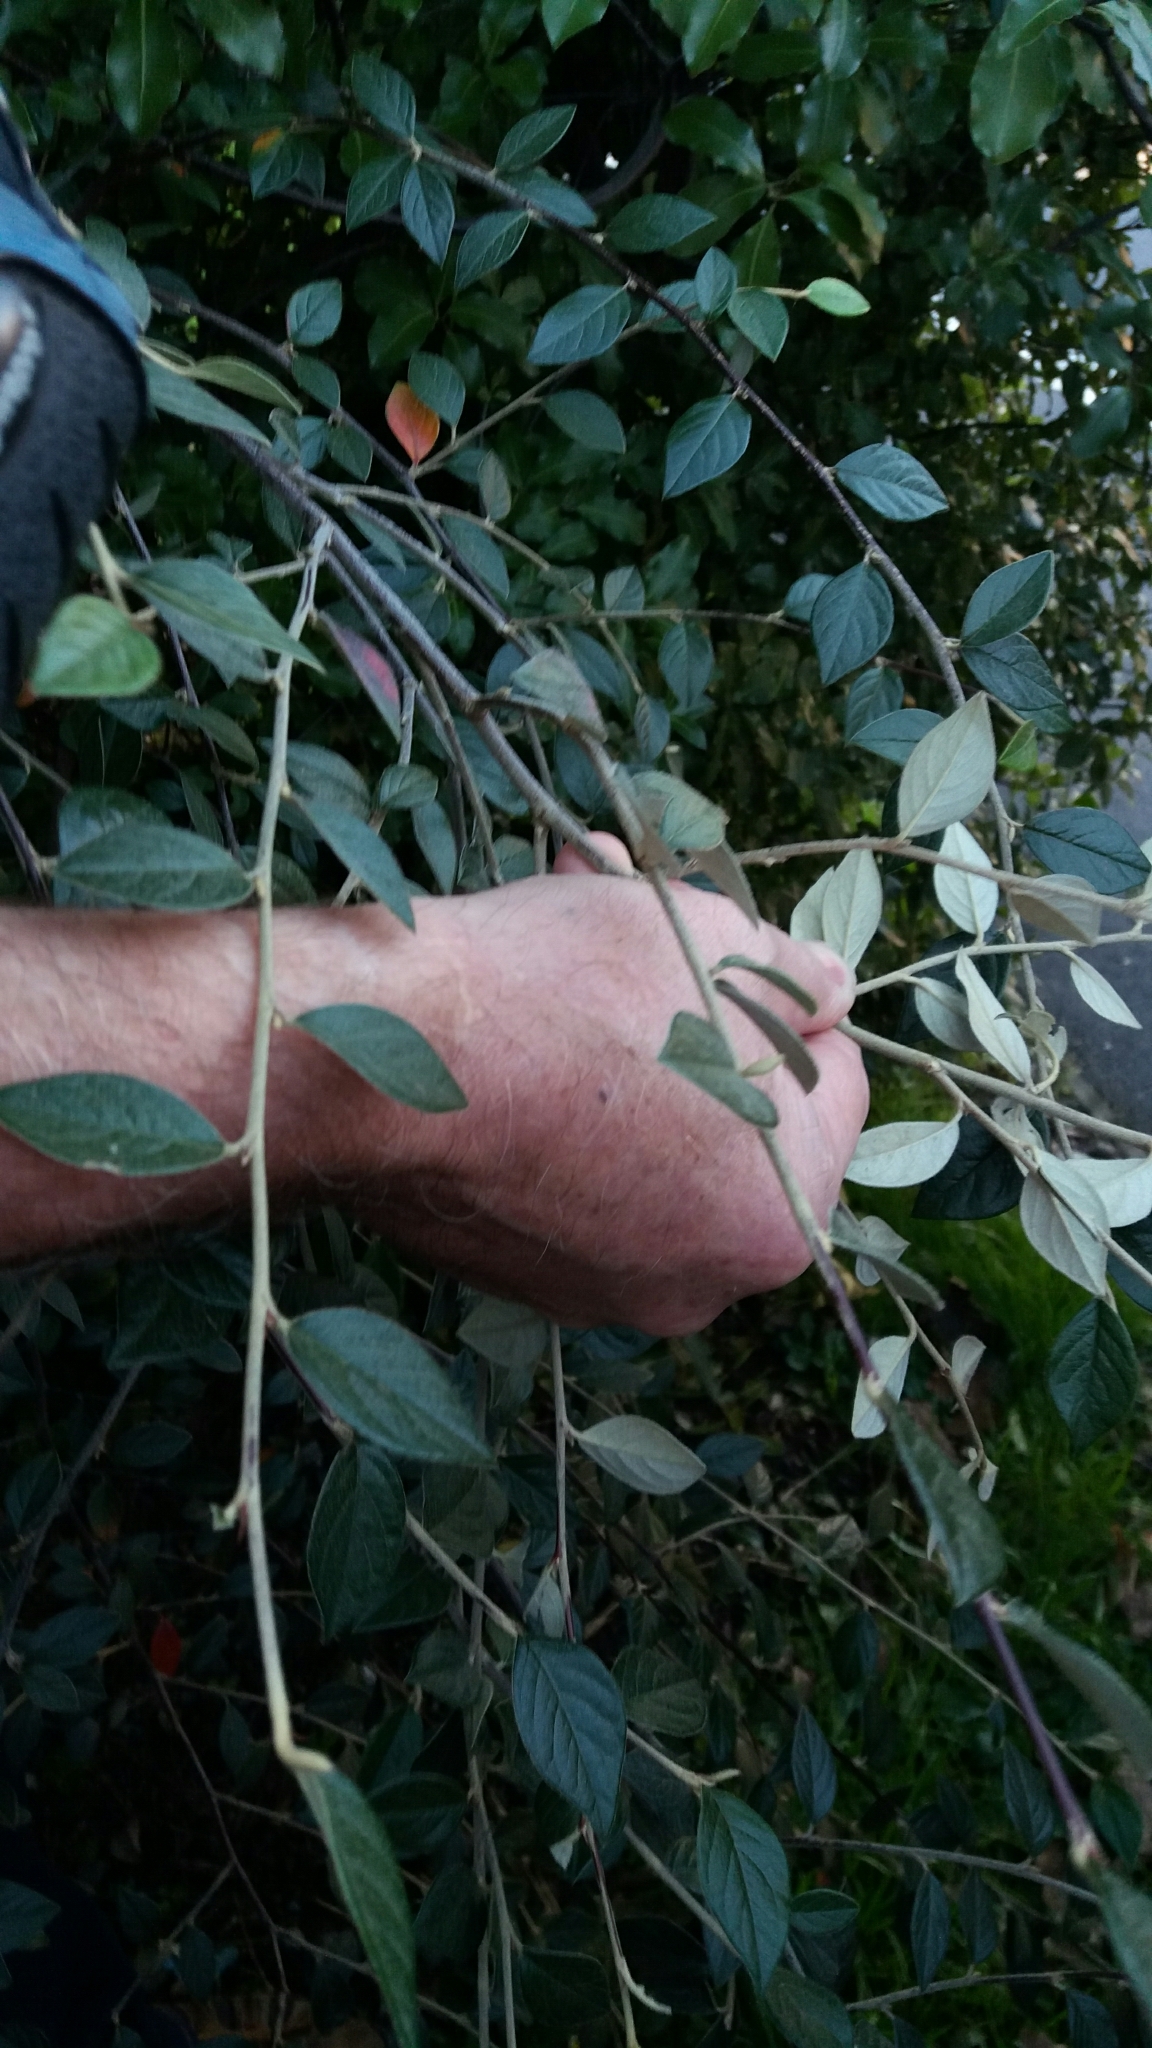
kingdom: Plantae
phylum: Tracheophyta
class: Magnoliopsida
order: Rosales
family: Rosaceae
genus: Cotoneaster
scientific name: Cotoneaster franchetii
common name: Franchet's cotoneaster
